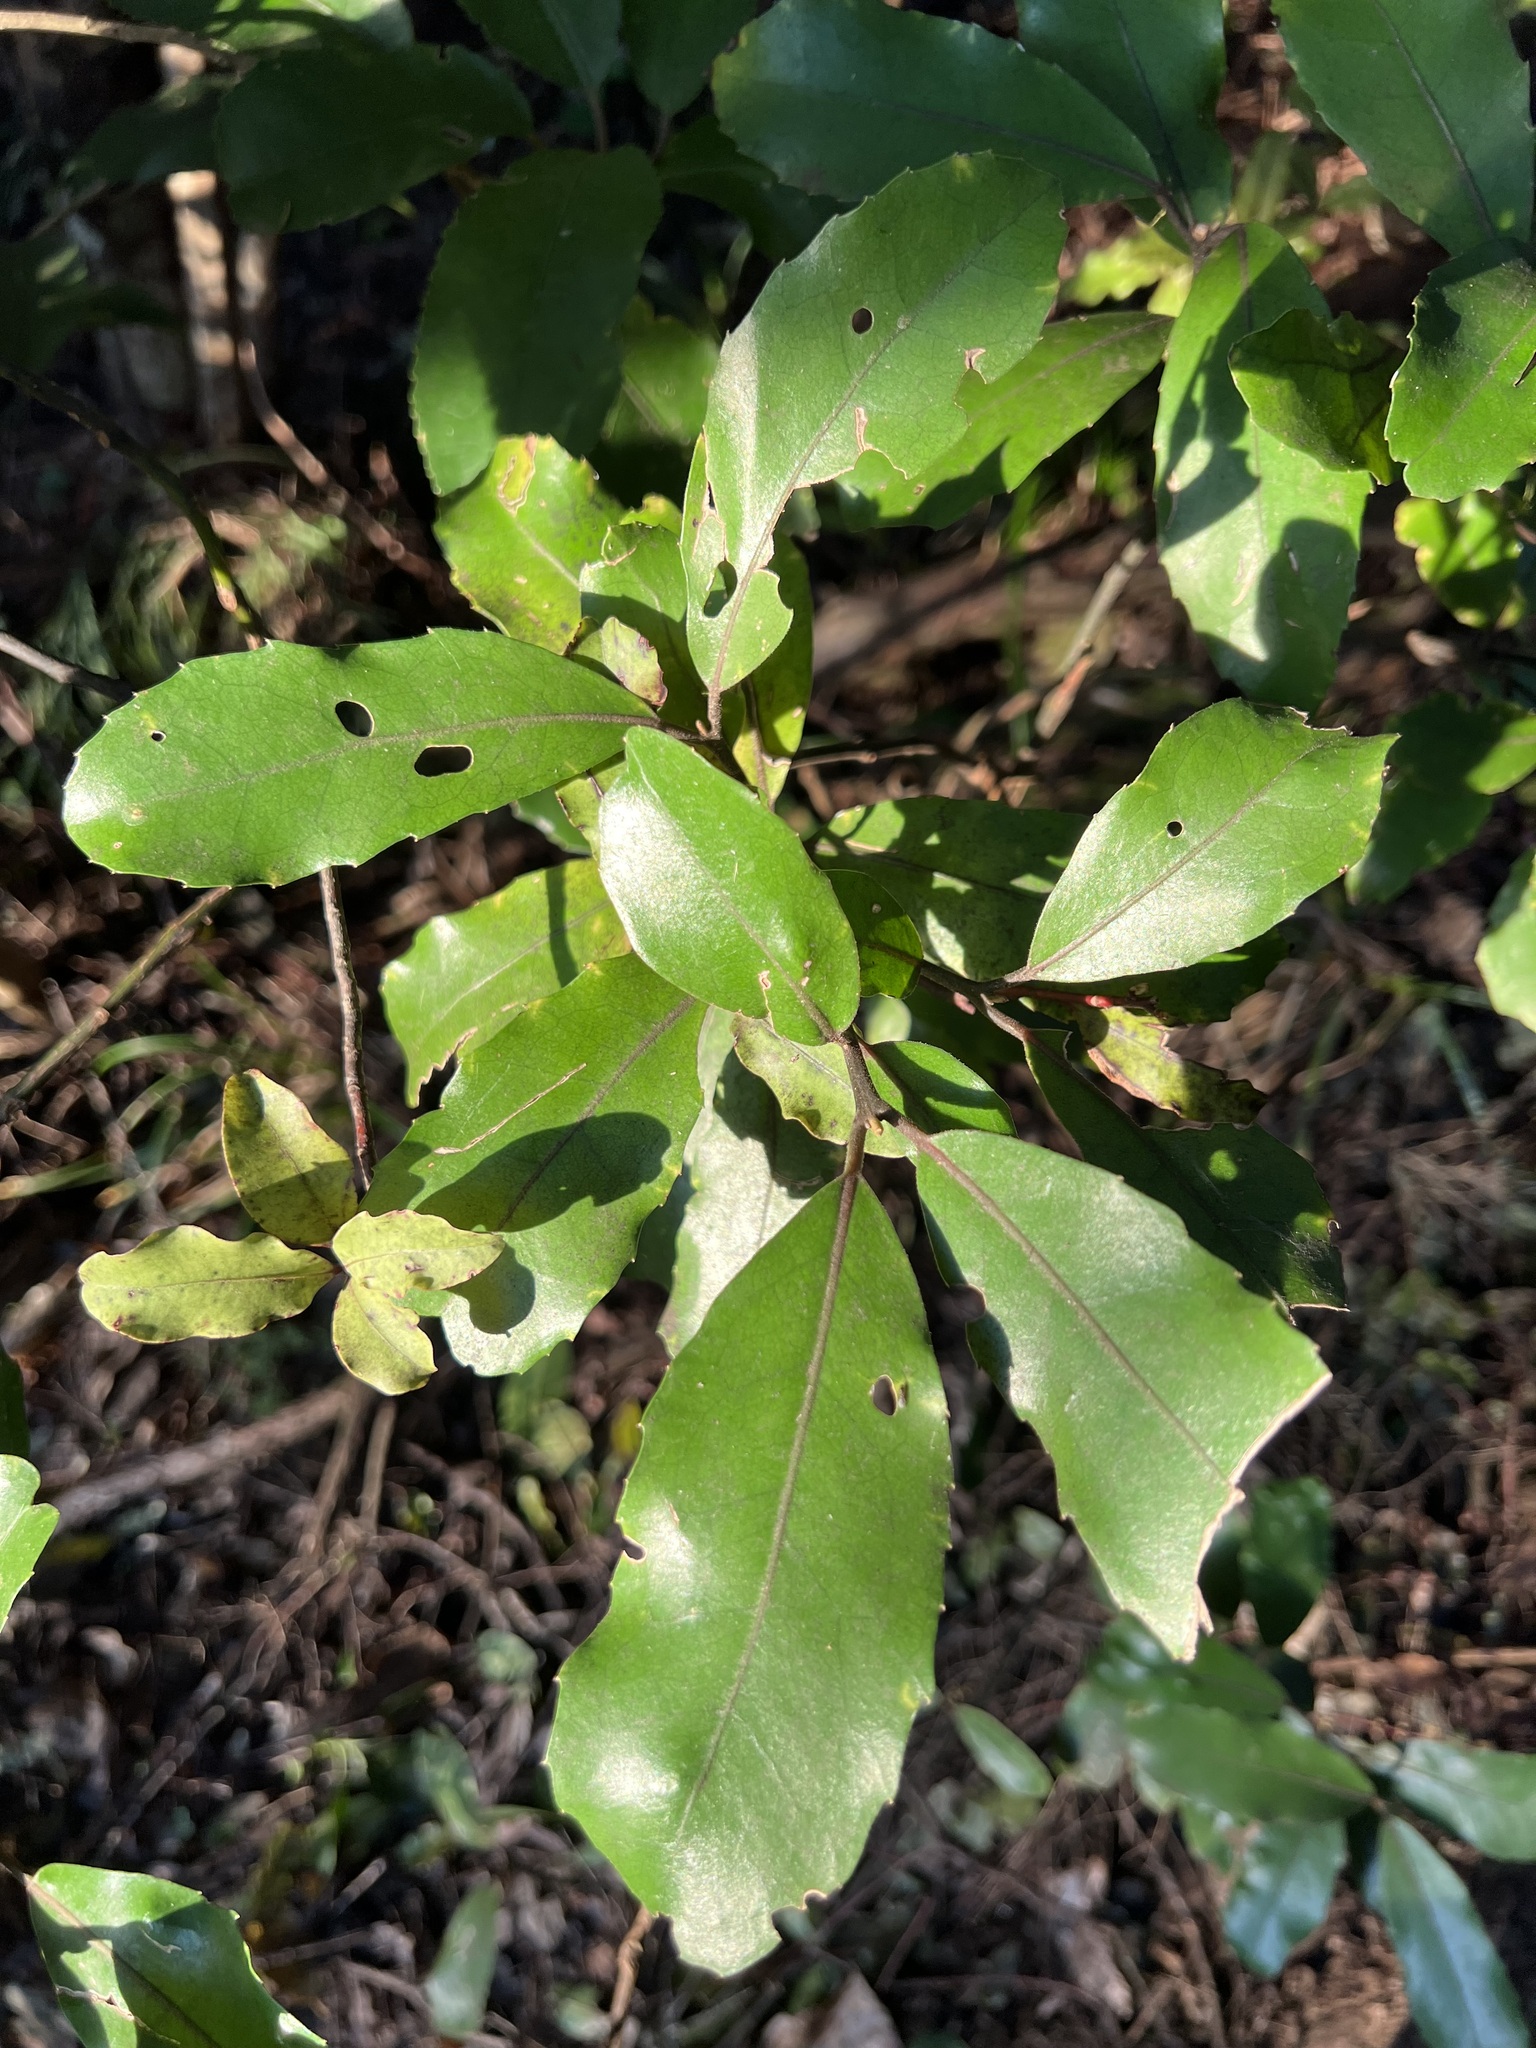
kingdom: Plantae
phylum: Tracheophyta
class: Magnoliopsida
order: Laurales
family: Monimiaceae
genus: Hedycarya
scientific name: Hedycarya arborea
